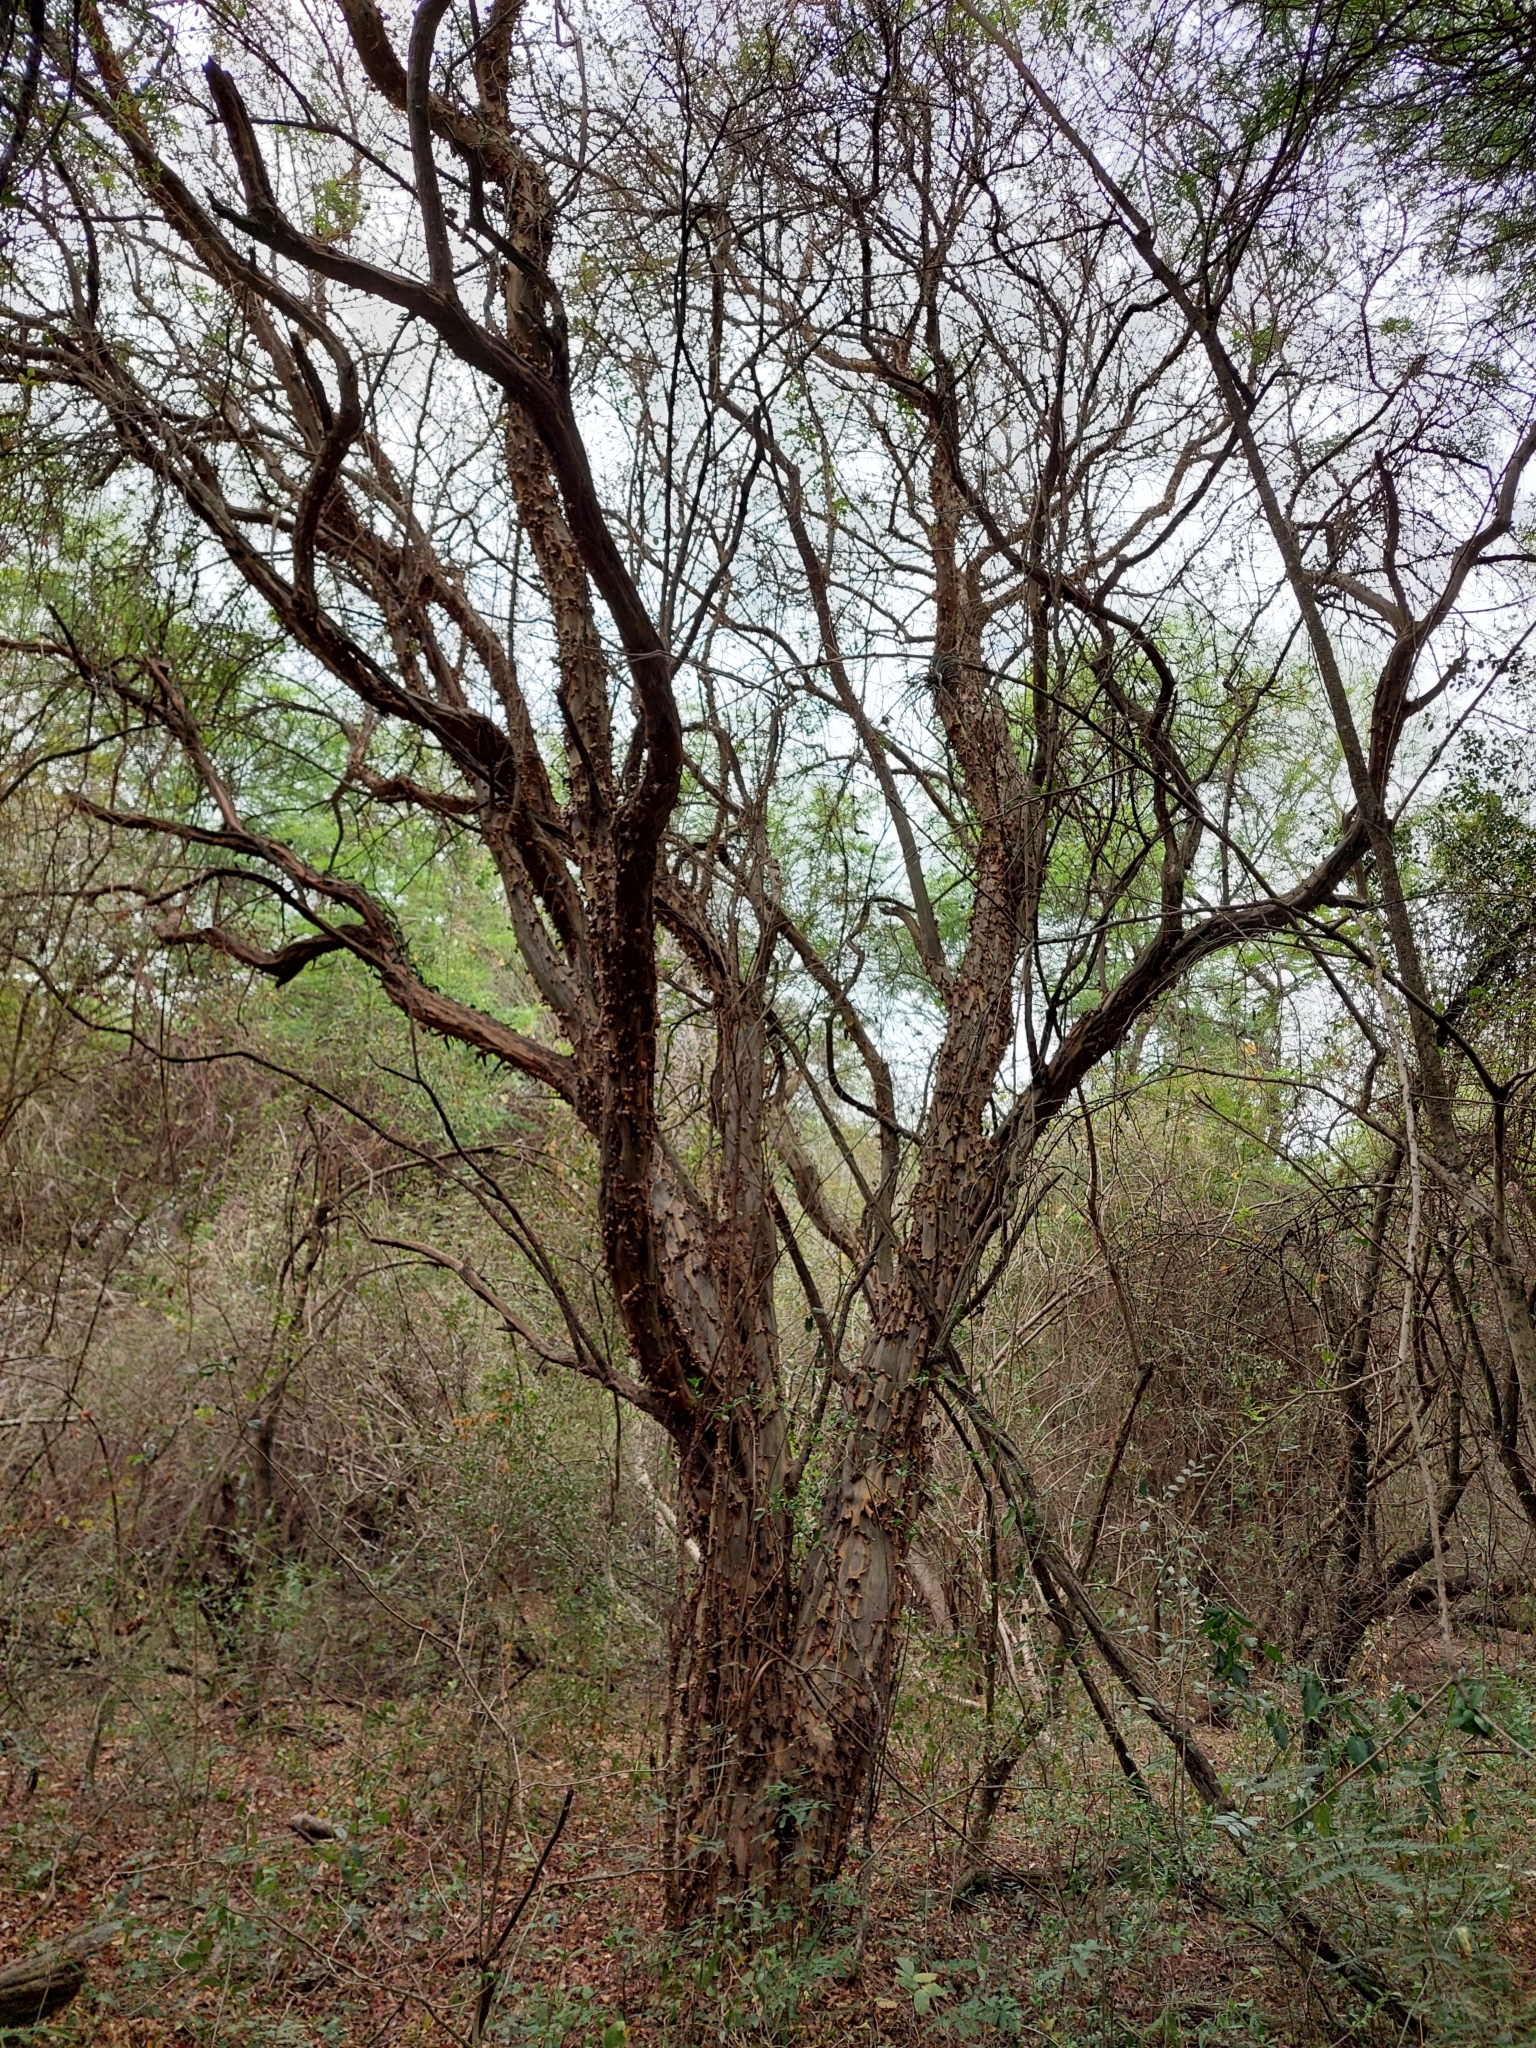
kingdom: Plantae
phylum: Tracheophyta
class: Magnoliopsida
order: Caryophyllales
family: Polygonaceae
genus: Salta
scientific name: Salta triflora
